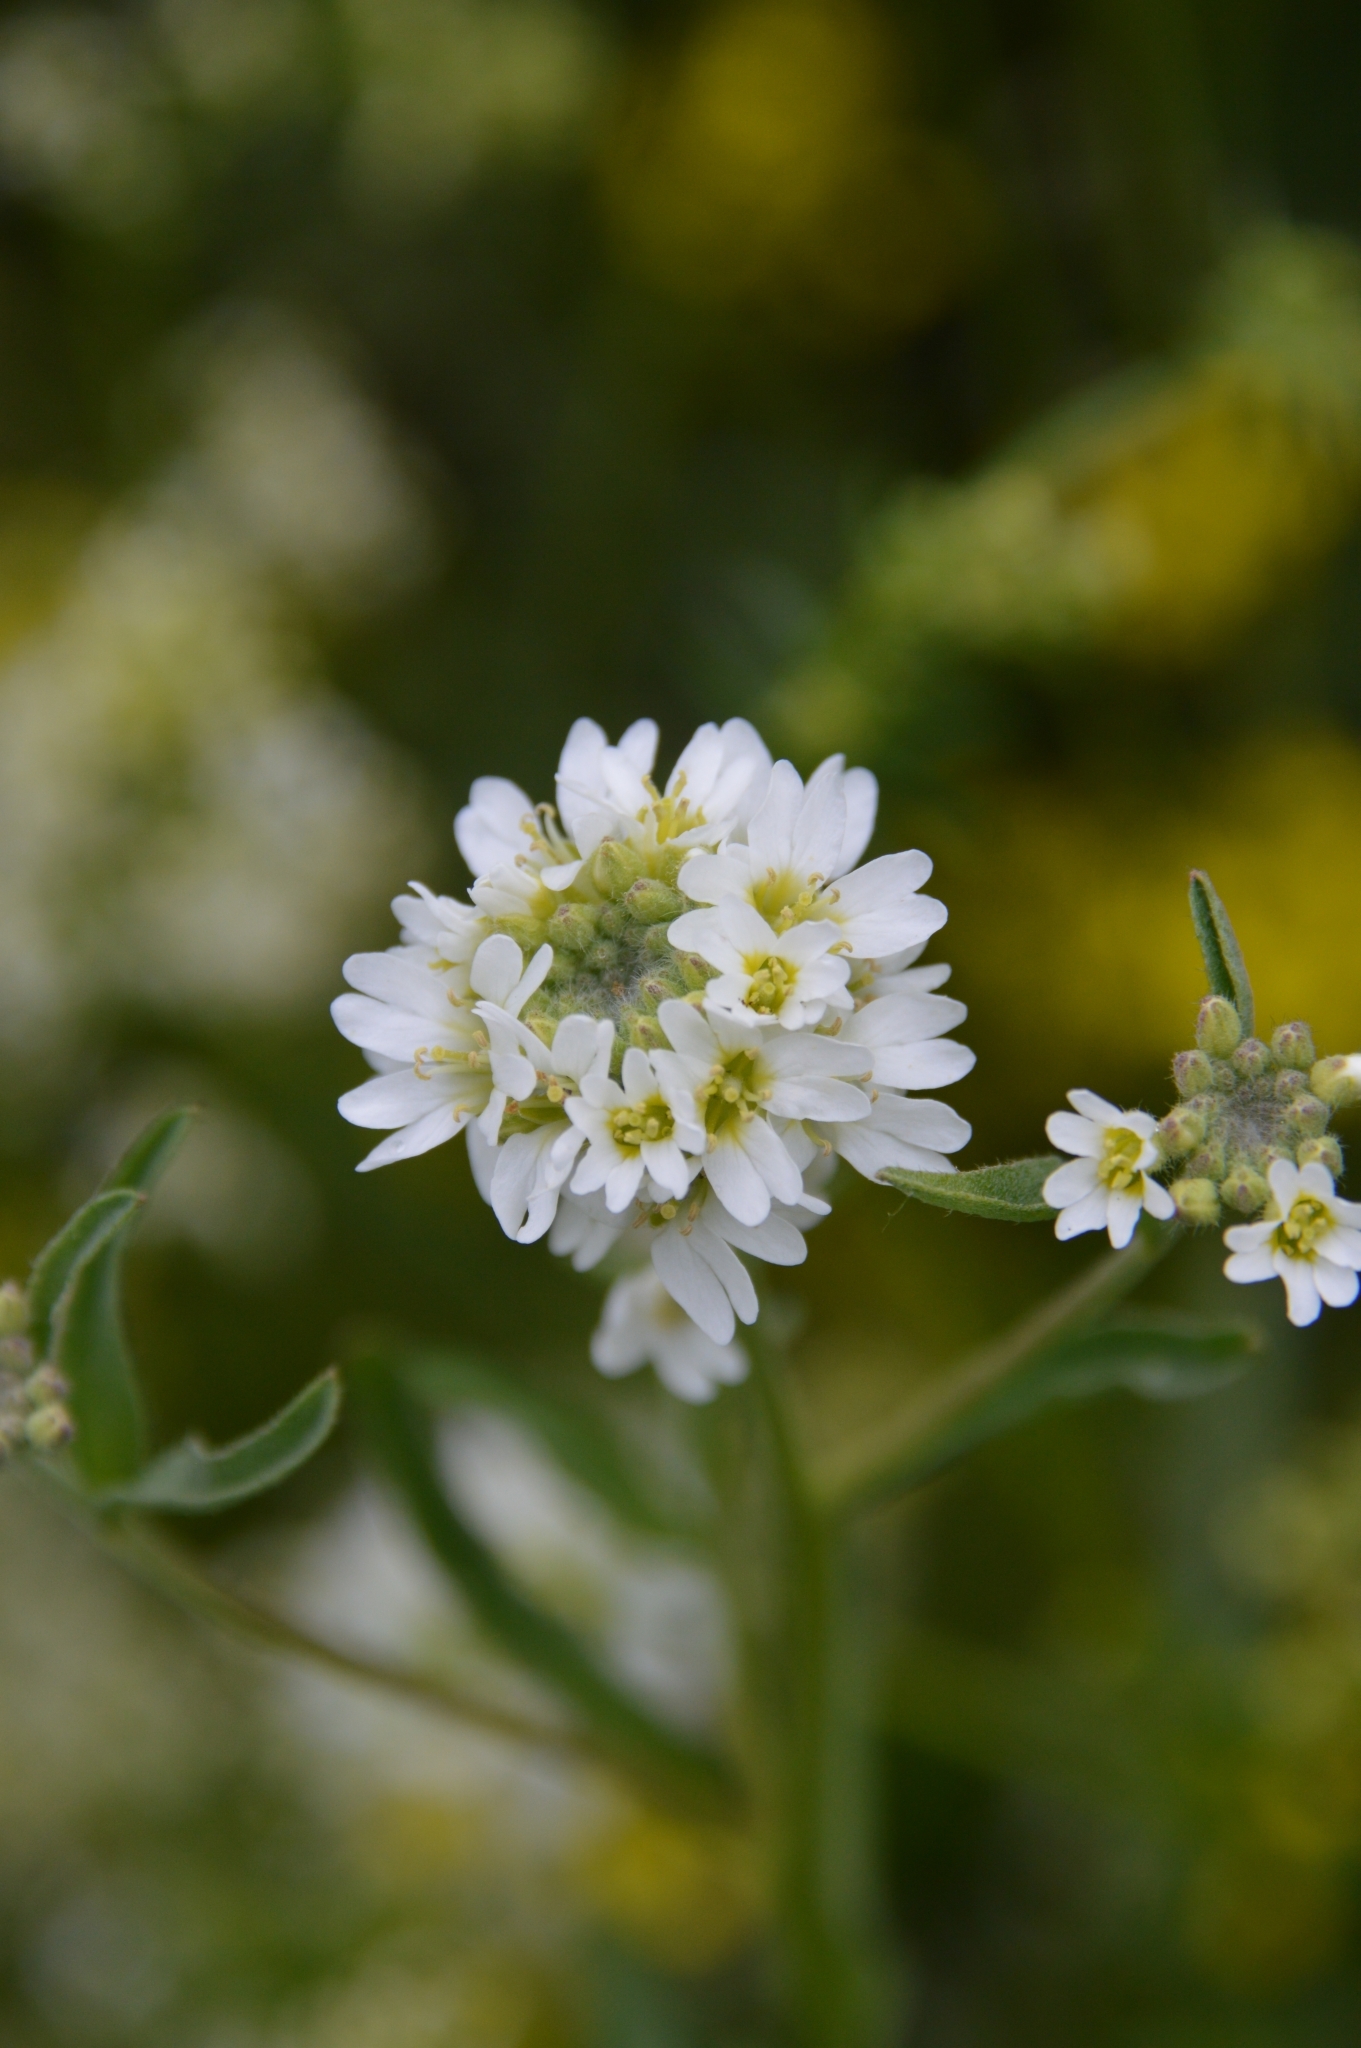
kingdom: Plantae
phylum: Tracheophyta
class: Magnoliopsida
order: Brassicales
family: Brassicaceae
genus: Berteroa
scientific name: Berteroa incana
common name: Hoary alison
